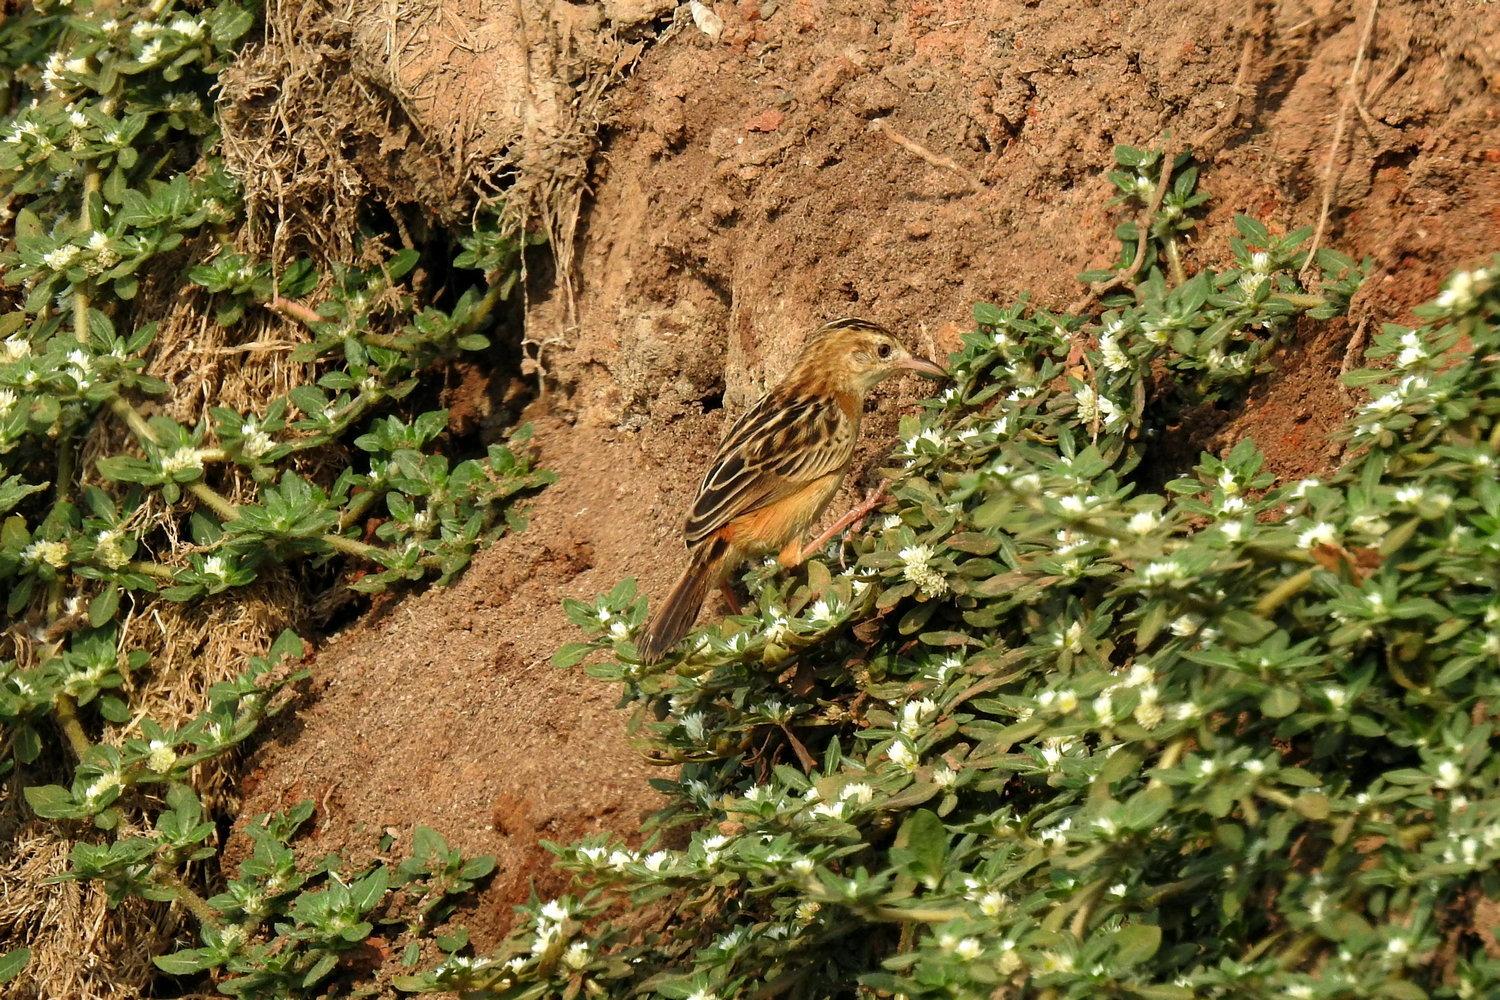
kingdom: Animalia
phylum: Chordata
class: Aves
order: Passeriformes
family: Cisticolidae
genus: Cisticola
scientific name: Cisticola exilis
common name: Golden-headed cisticola
